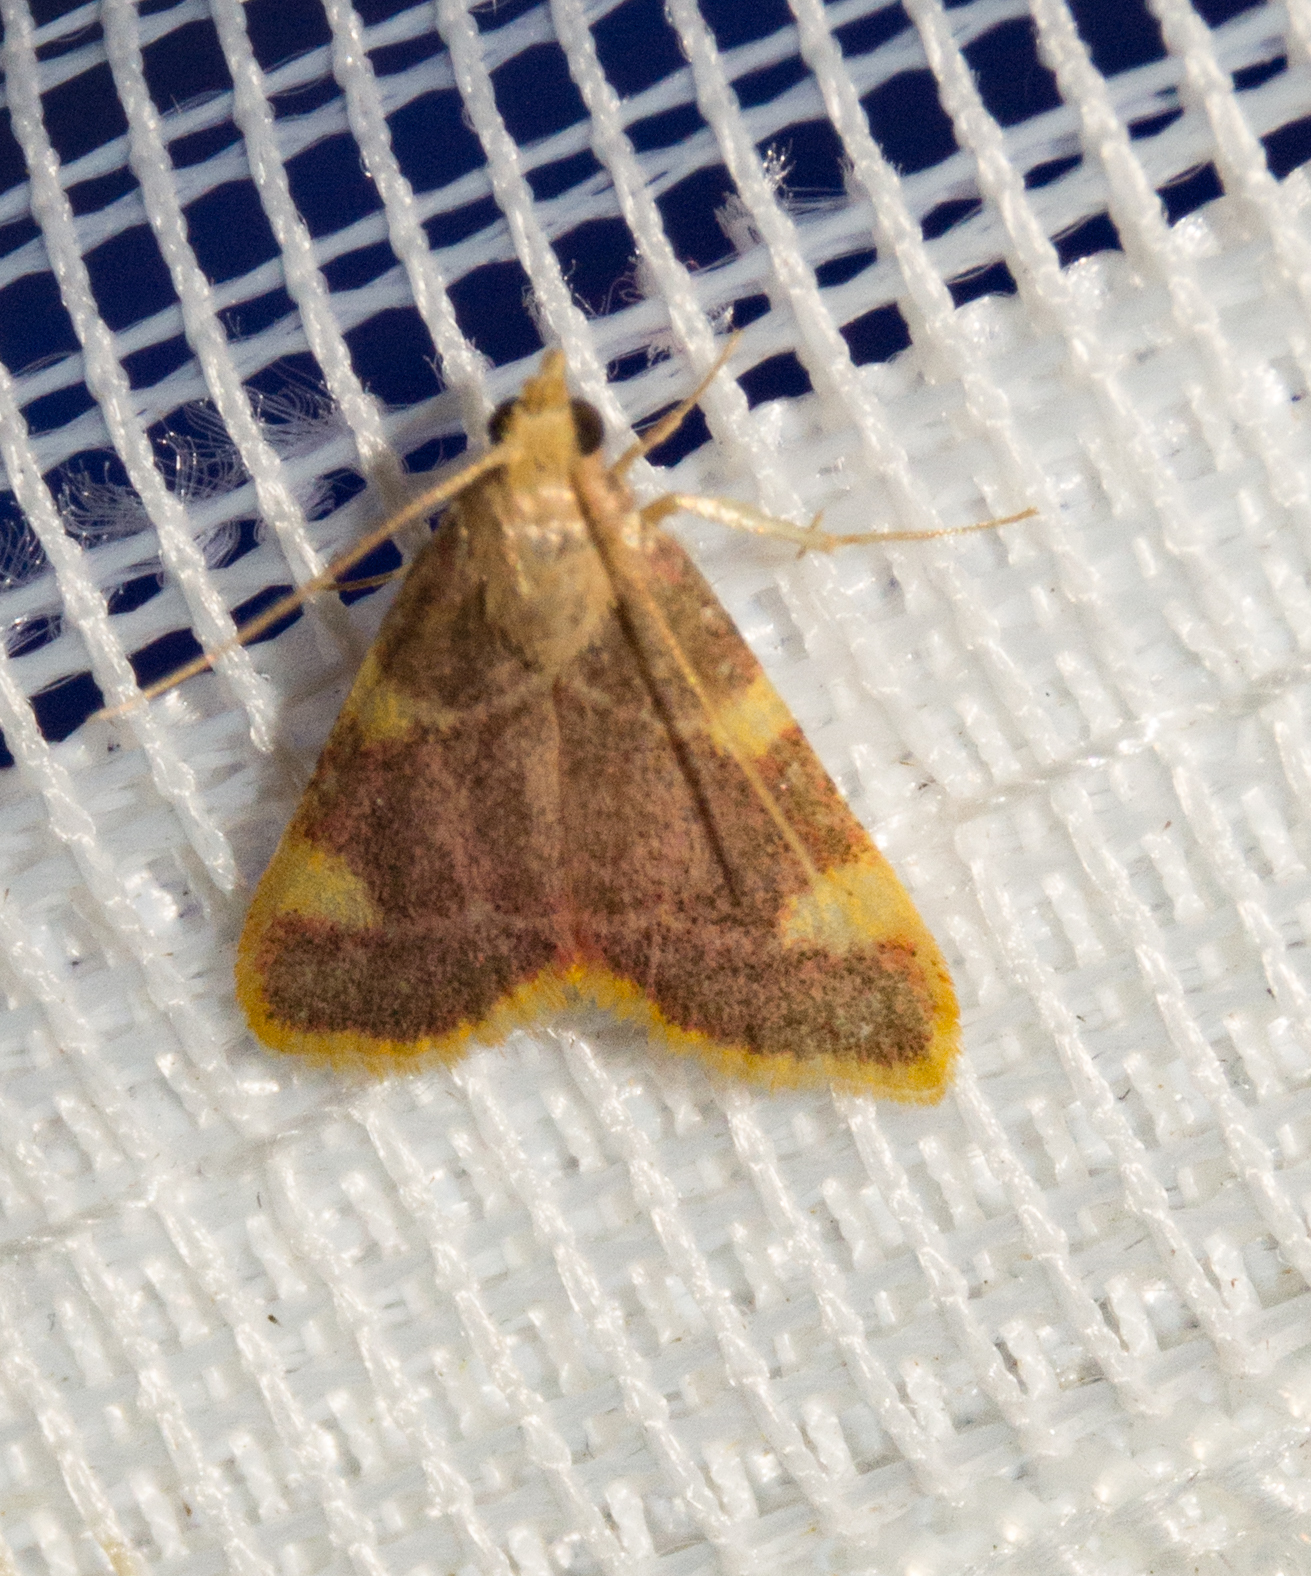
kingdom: Animalia
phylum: Arthropoda
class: Insecta
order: Lepidoptera
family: Pyralidae
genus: Hypsopygia
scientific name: Hypsopygia costalis
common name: Gold triangle
